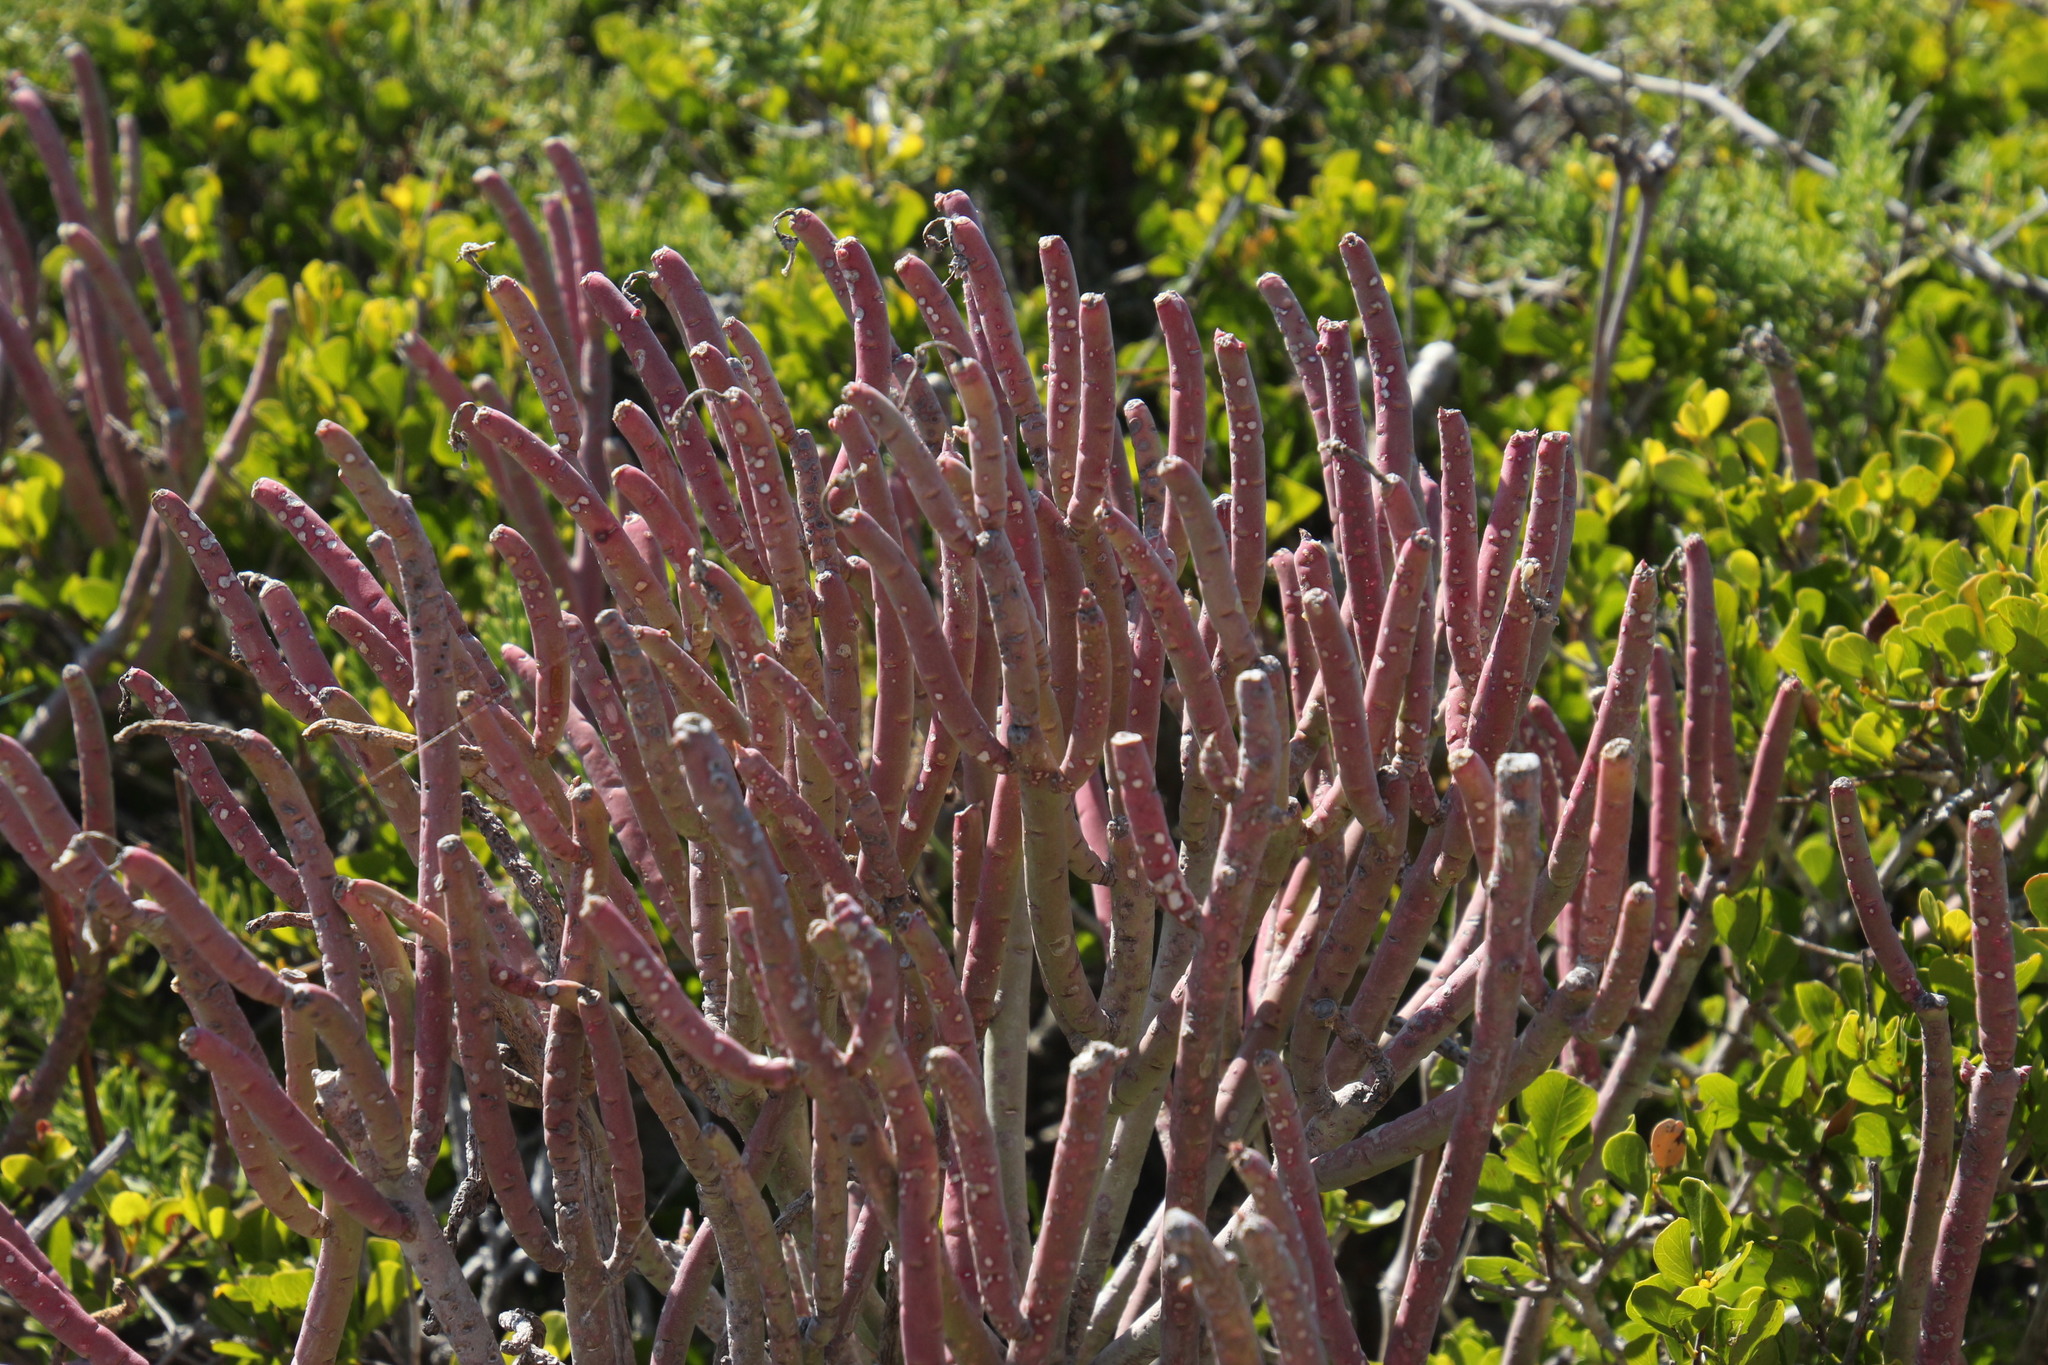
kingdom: Plantae
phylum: Tracheophyta
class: Magnoliopsida
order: Malpighiales
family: Euphorbiaceae
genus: Euphorbia
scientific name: Euphorbia mauritanica
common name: Jackal's-food
